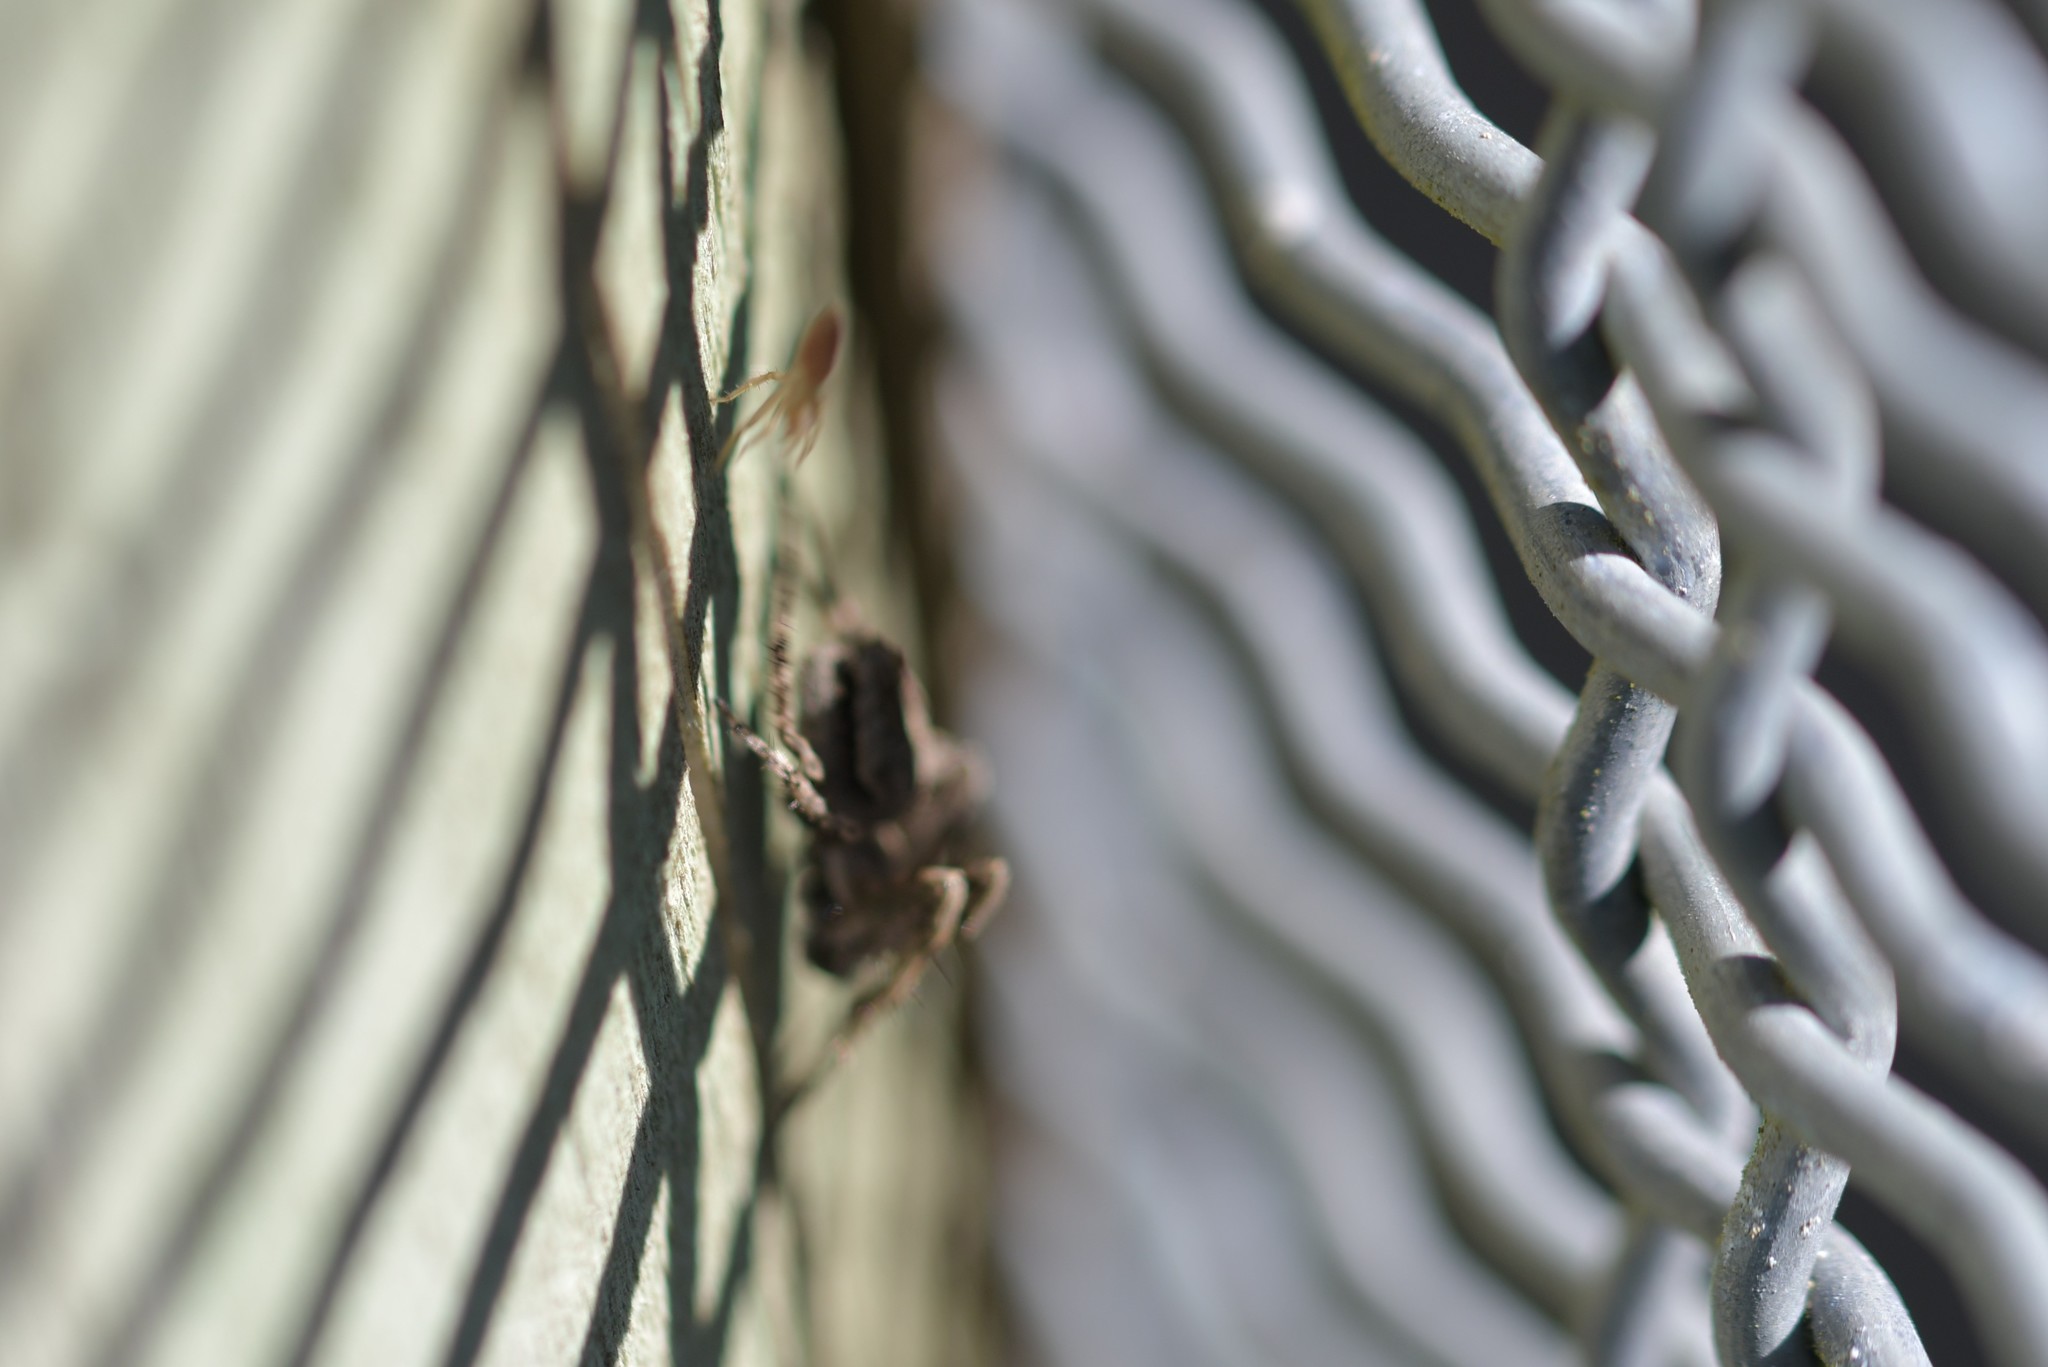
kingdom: Animalia
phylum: Arthropoda
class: Arachnida
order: Araneae
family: Araneidae
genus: Eriophora
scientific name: Eriophora pustulosa
